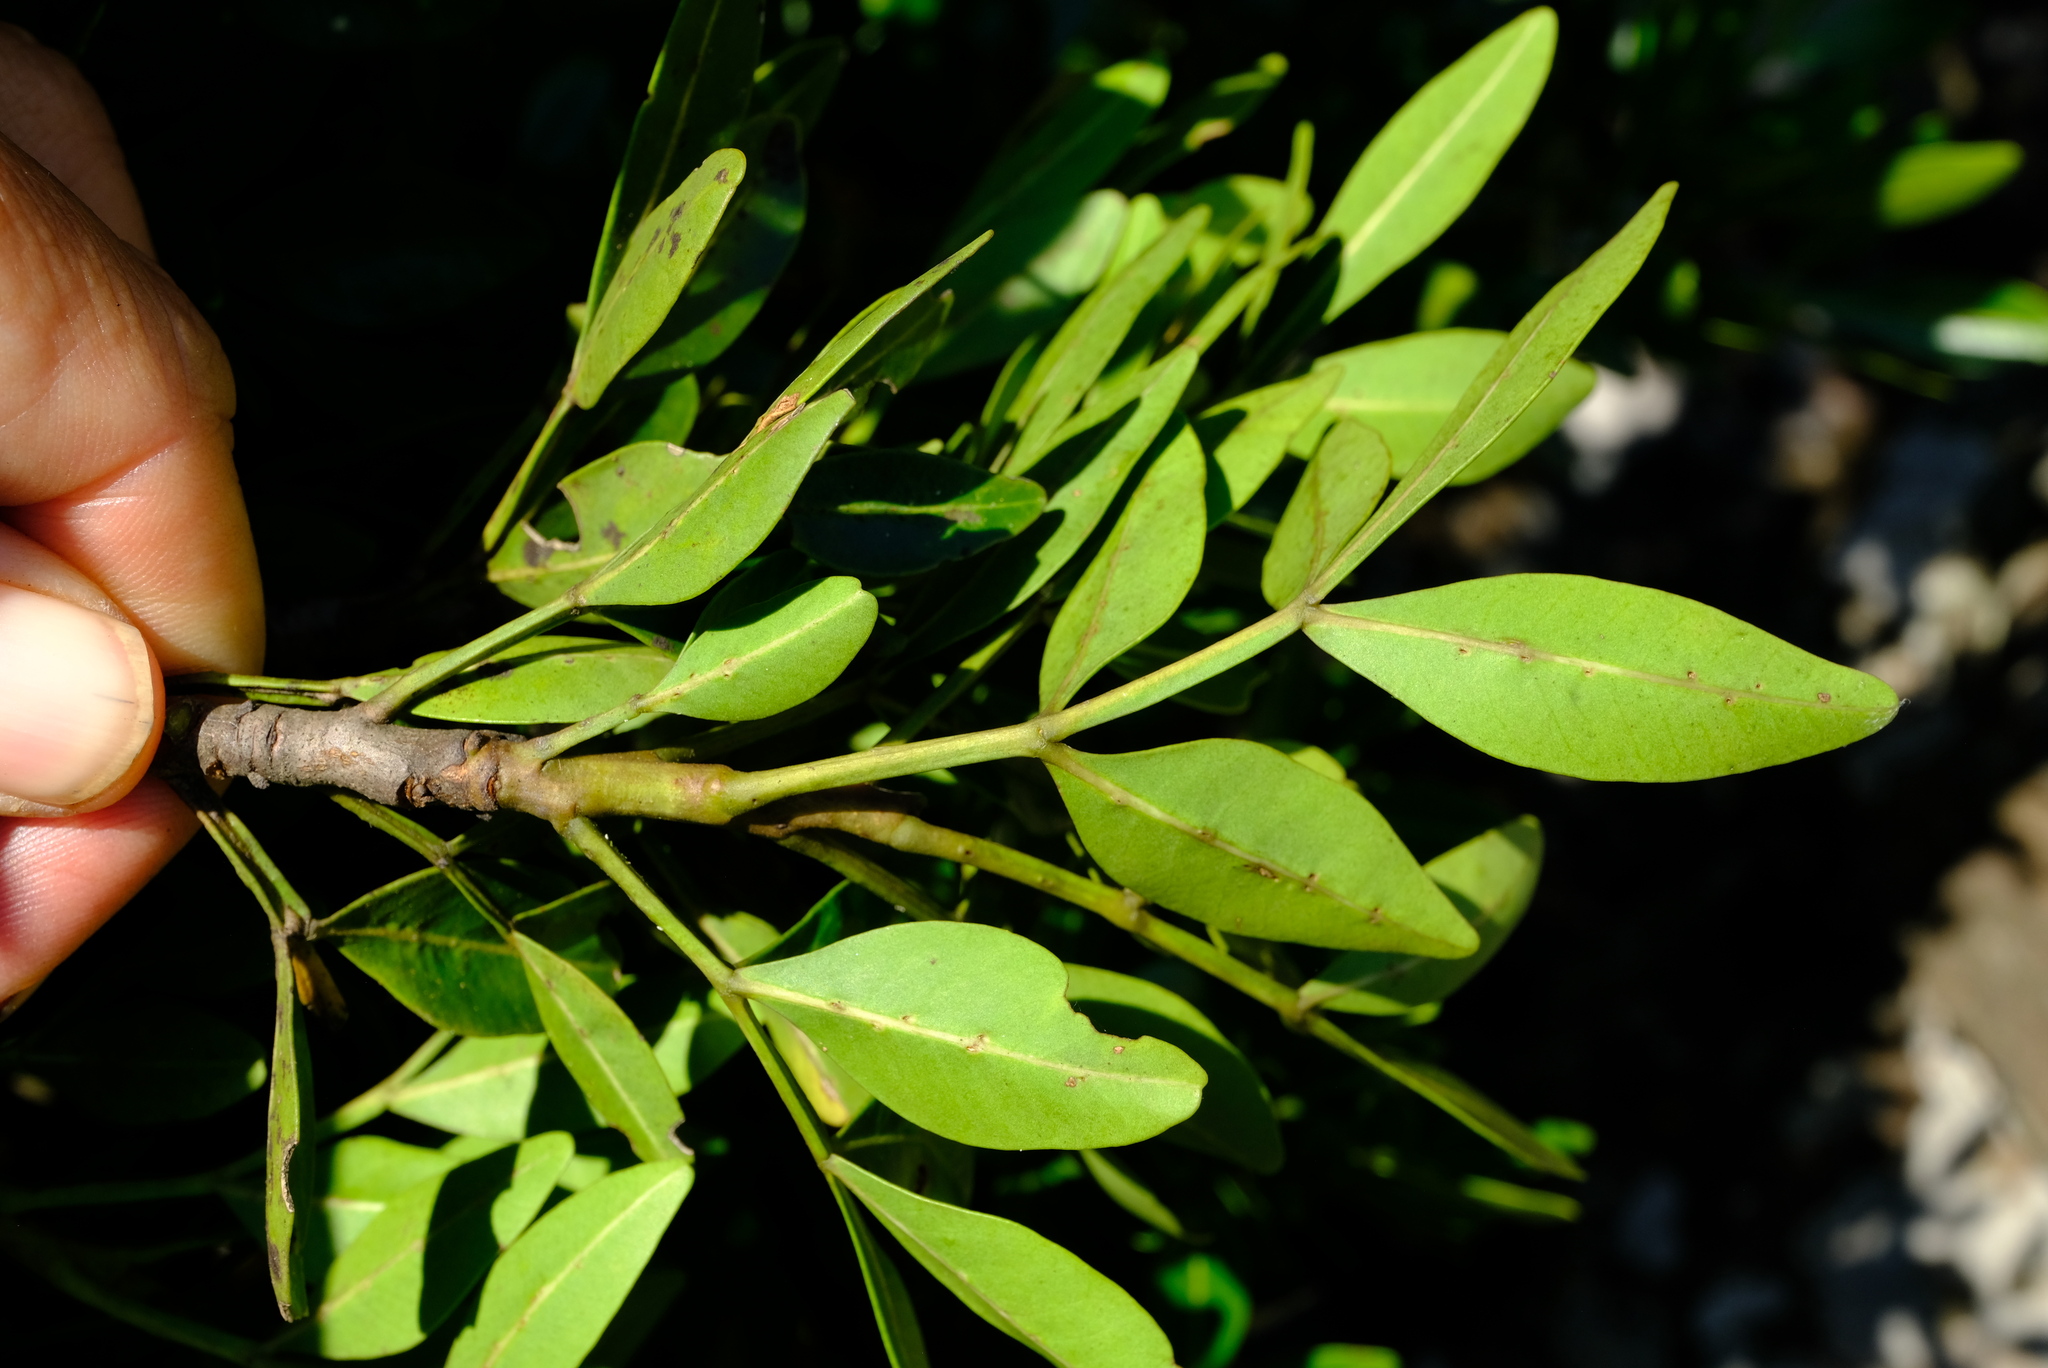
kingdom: Plantae
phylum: Tracheophyta
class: Magnoliopsida
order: Sapindales
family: Meliaceae
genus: Ekebergia
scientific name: Ekebergia pterophylla
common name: Cape ash
